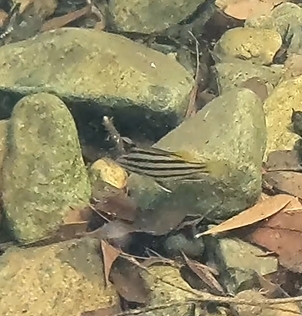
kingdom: Animalia
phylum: Chordata
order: Perciformes
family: Terapontidae
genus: Mesopristes
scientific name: Mesopristes argenteus
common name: Silver grunter
